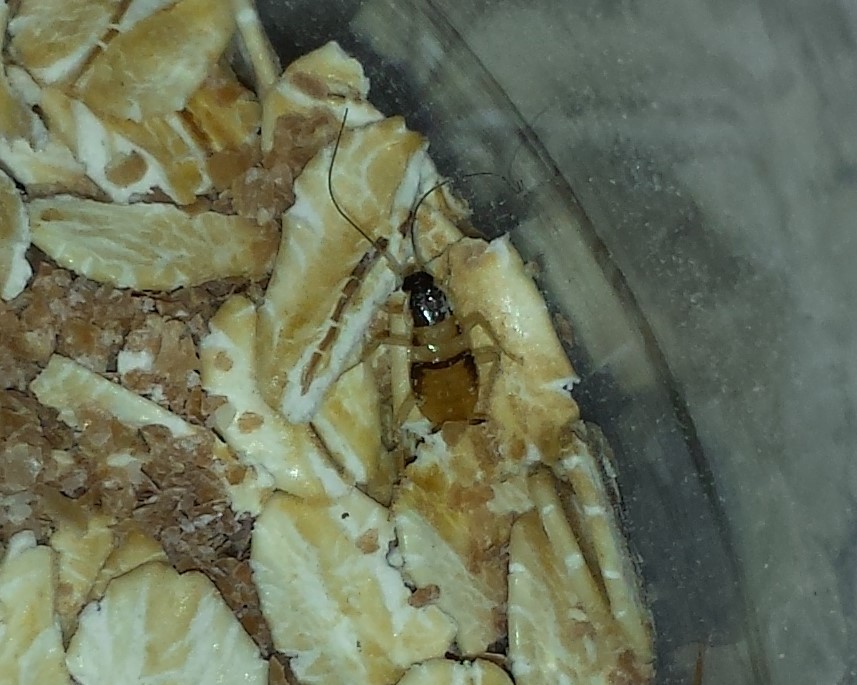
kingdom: Animalia
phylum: Arthropoda
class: Insecta
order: Blattodea
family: Ectobiidae
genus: Supella
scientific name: Supella longipalpa
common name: Brown-banded cockroach
